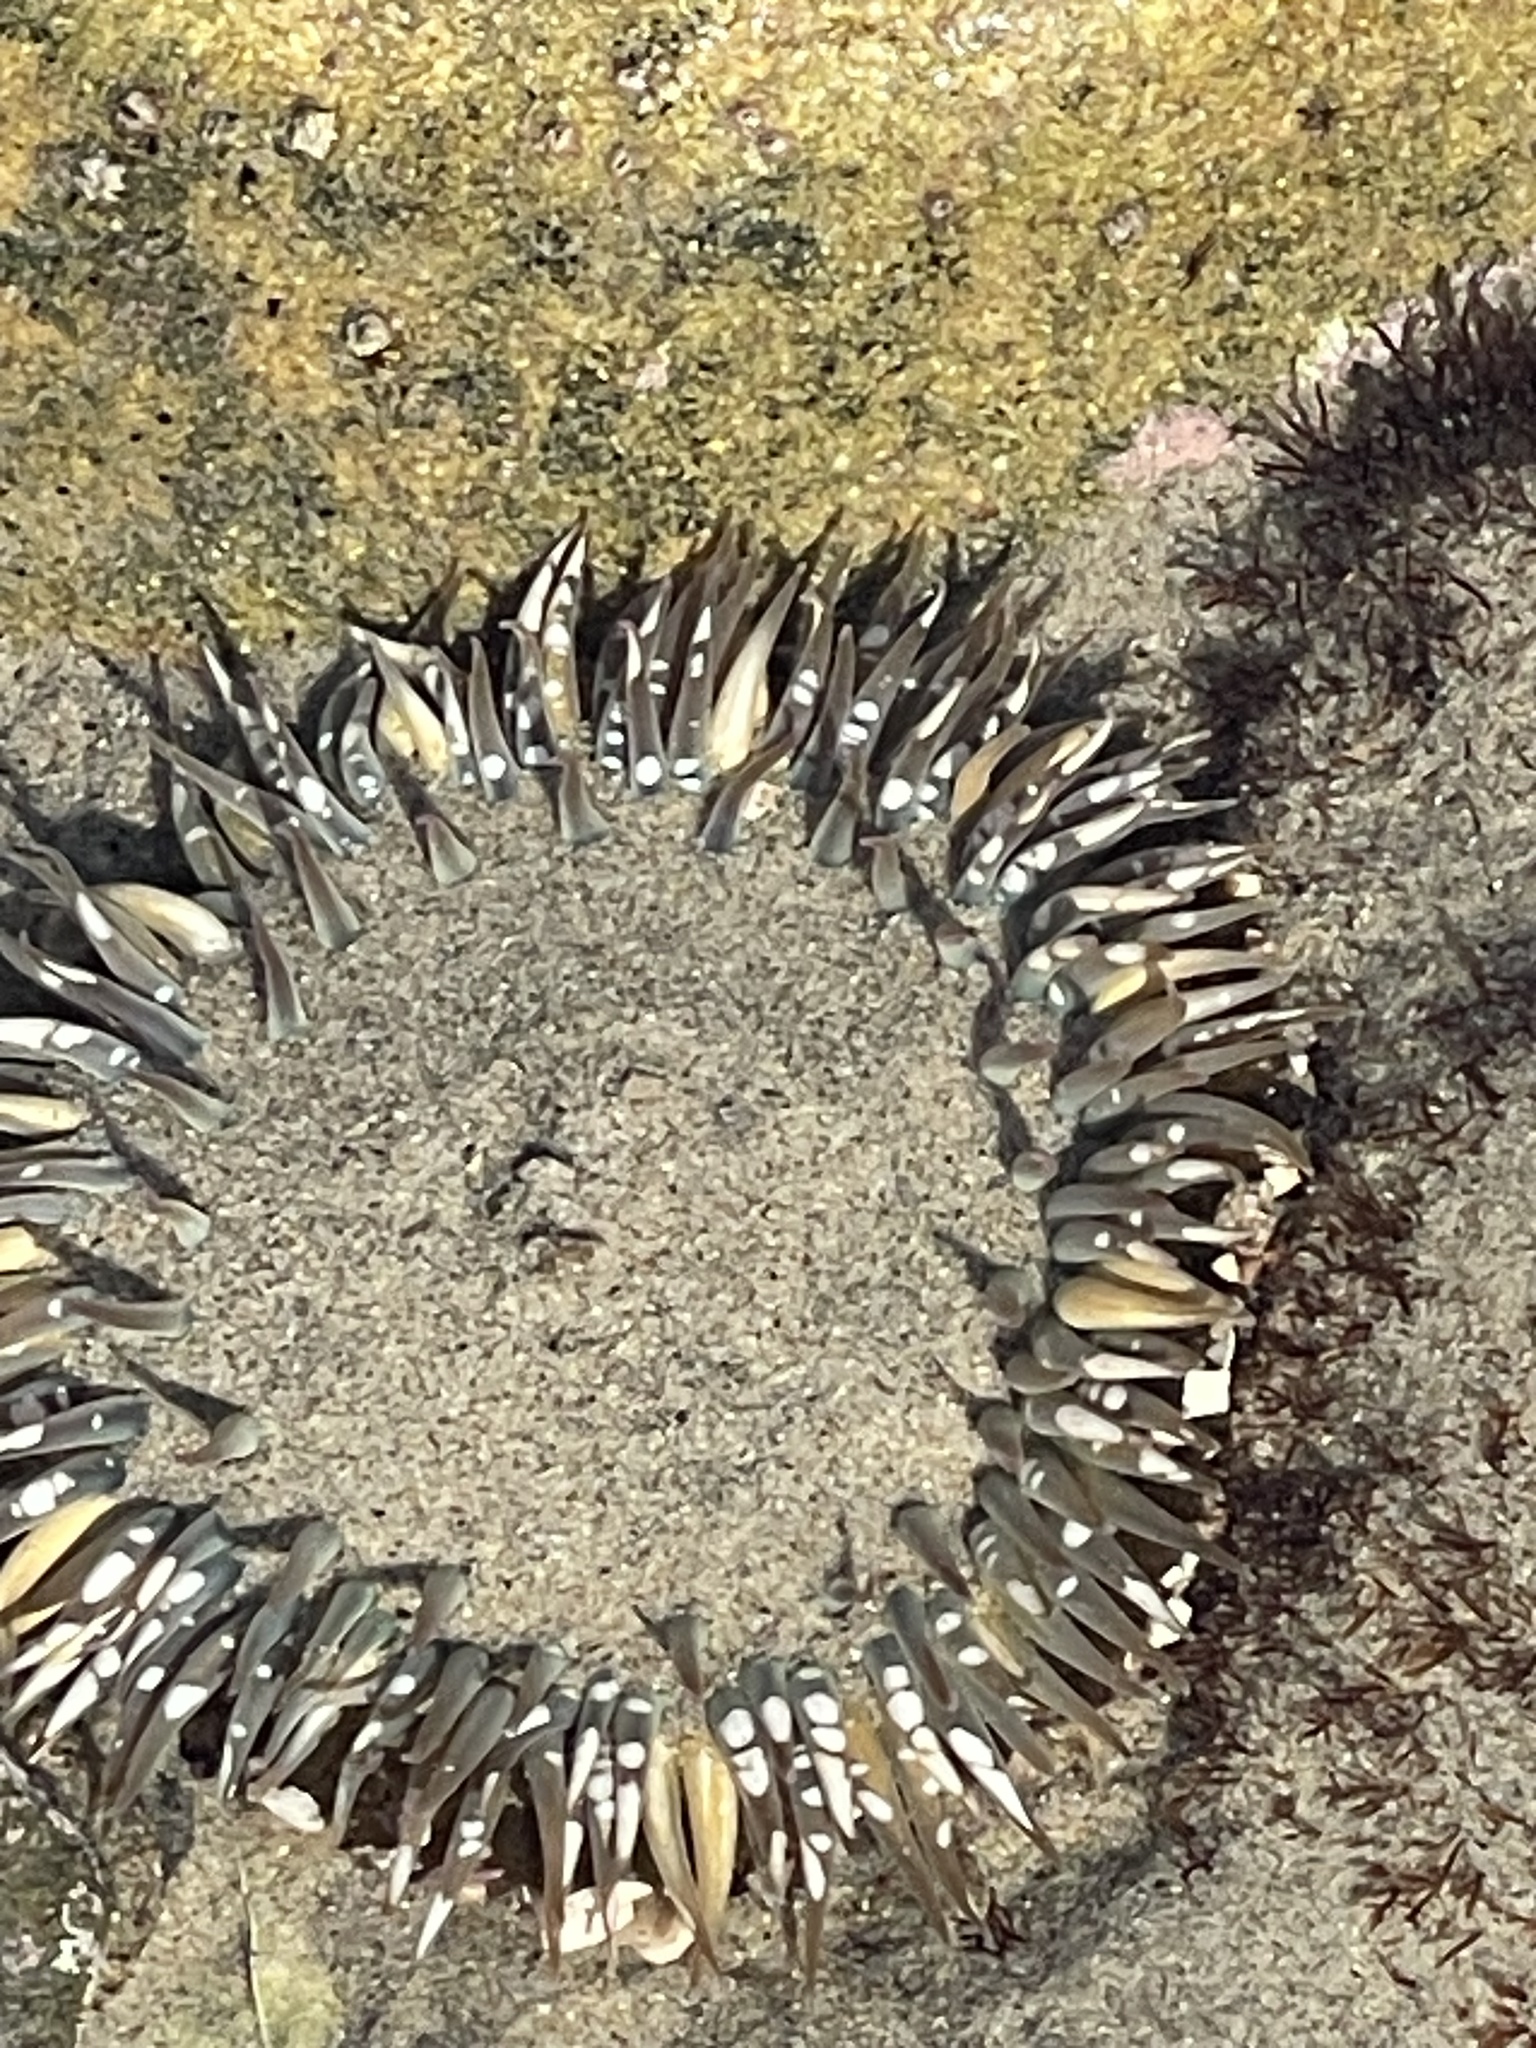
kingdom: Animalia
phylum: Cnidaria
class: Anthozoa
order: Actiniaria
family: Actiniidae
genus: Anthopleura
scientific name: Anthopleura sola
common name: Sun anemone
